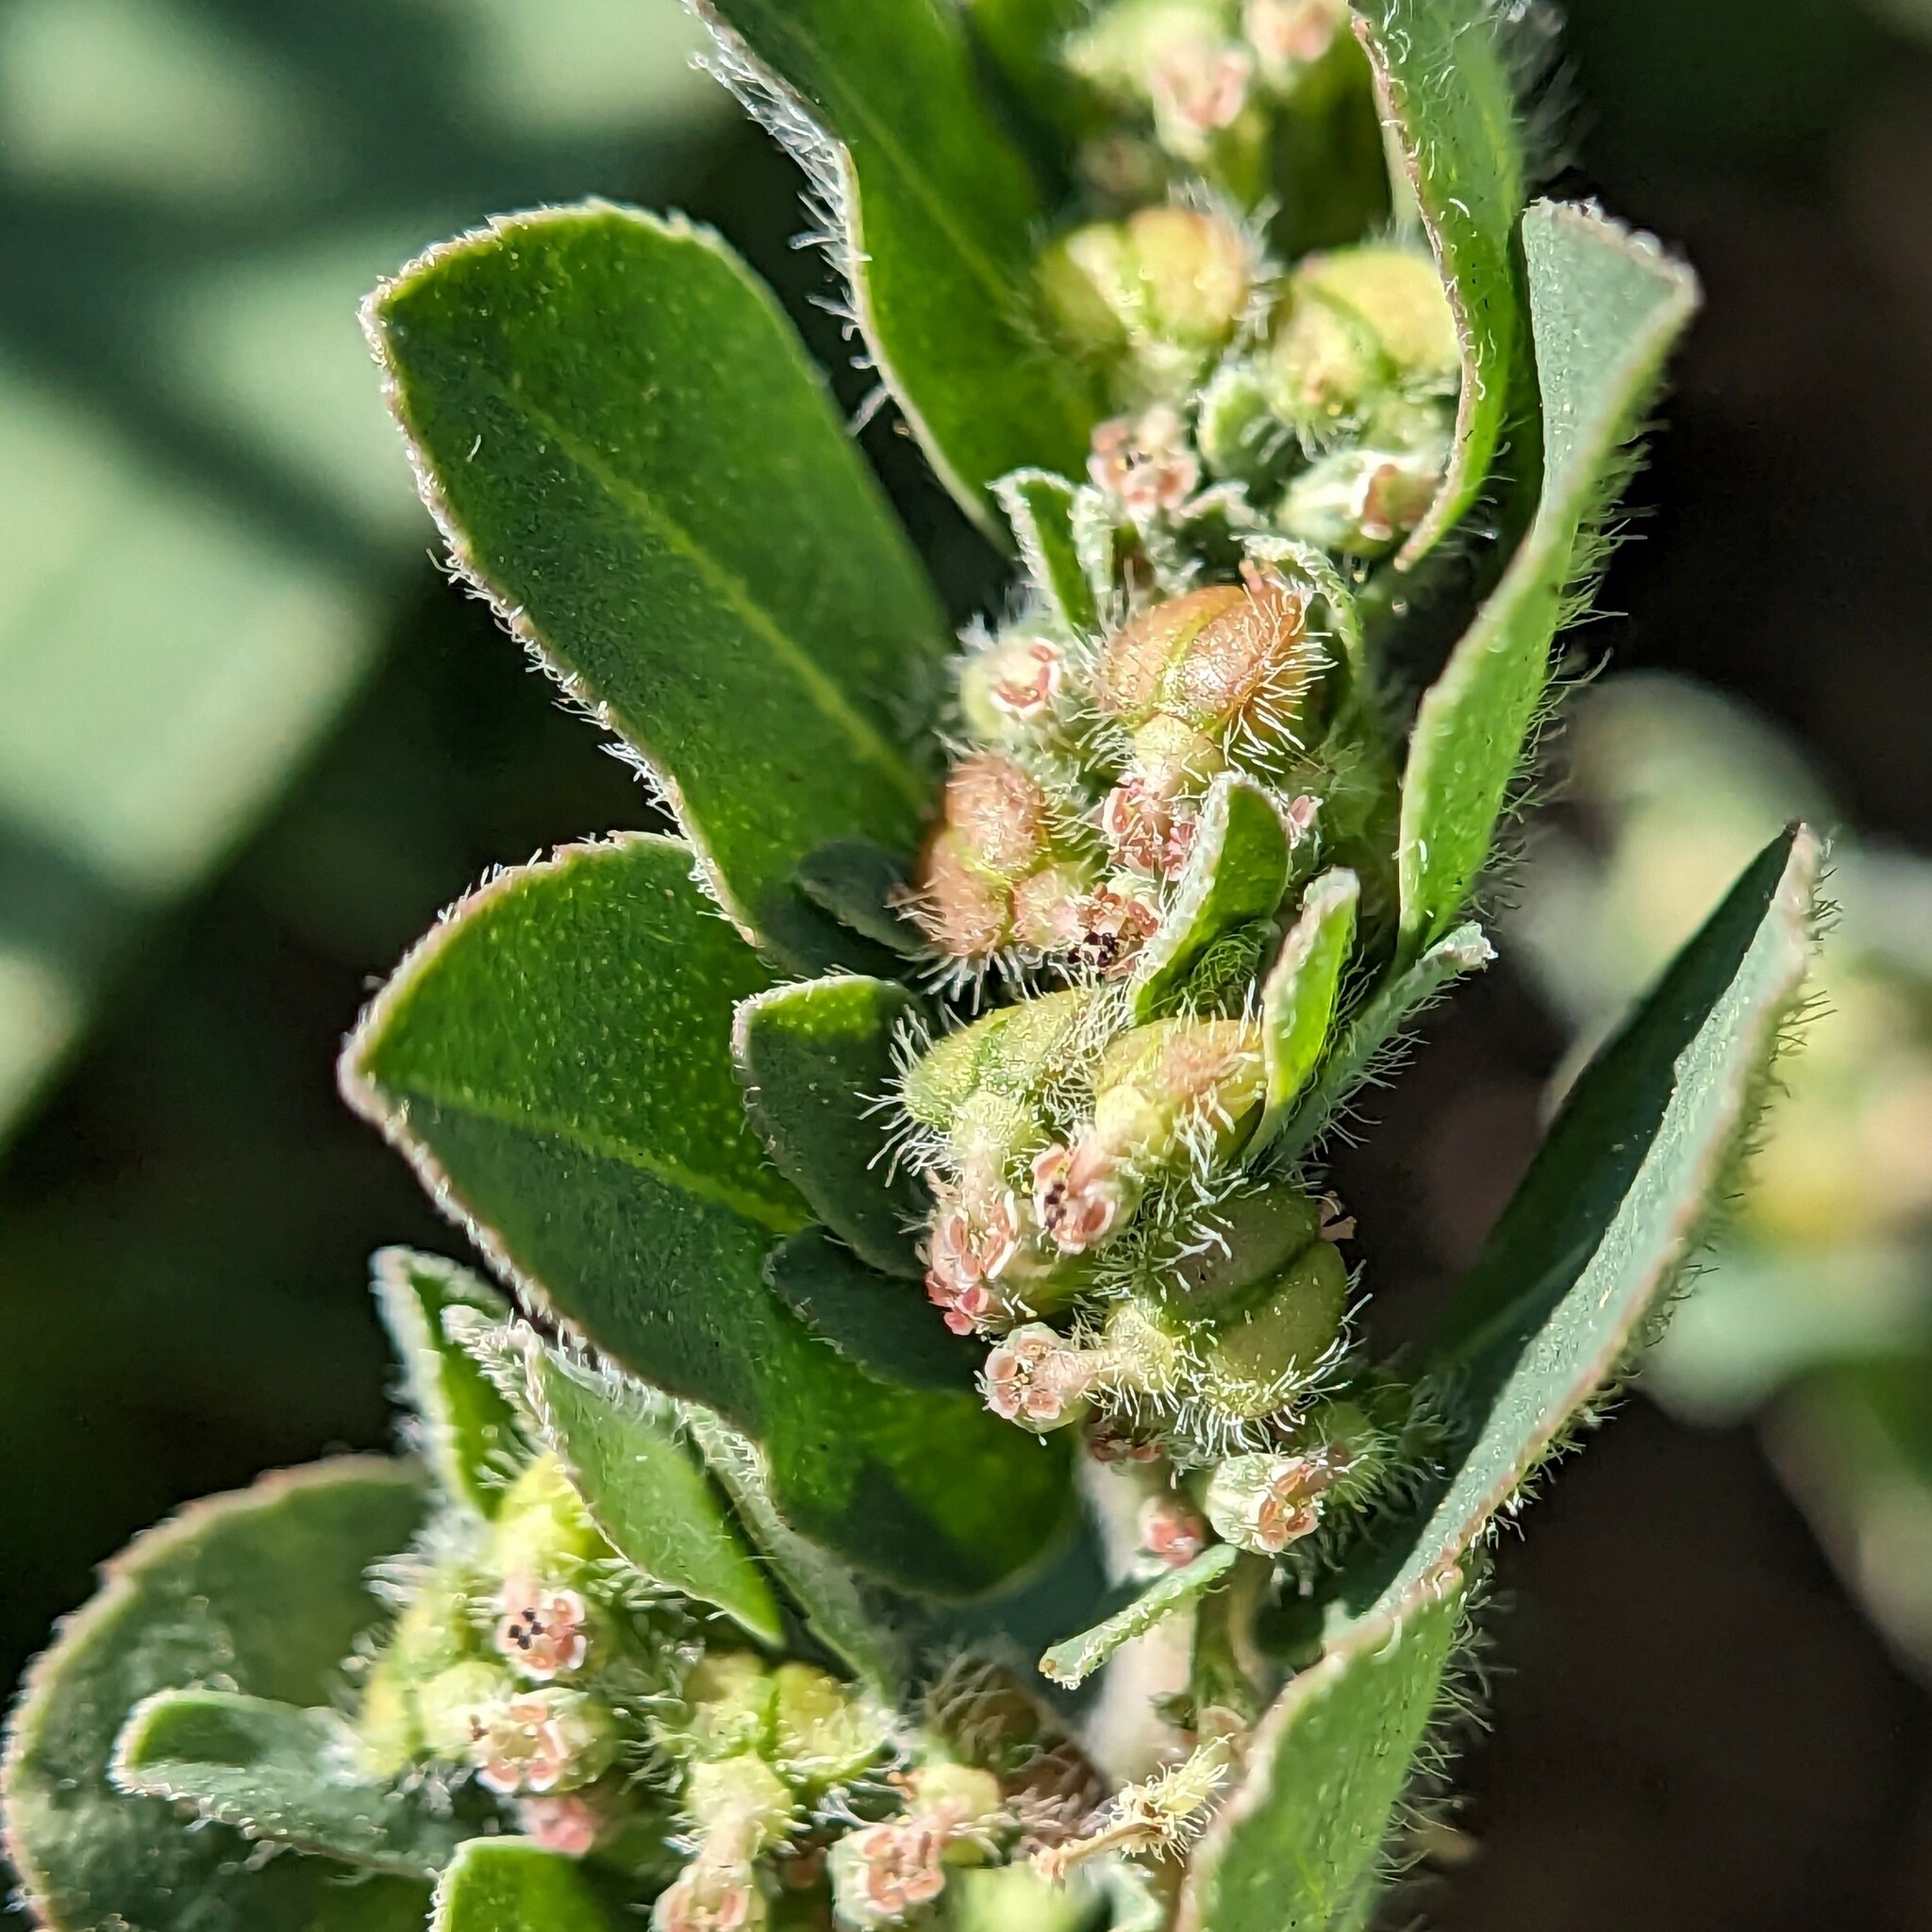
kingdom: Plantae
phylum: Tracheophyta
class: Magnoliopsida
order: Malpighiales
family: Euphorbiaceae
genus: Euphorbia
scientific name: Euphorbia prostrata
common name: Prostrate sandmat
